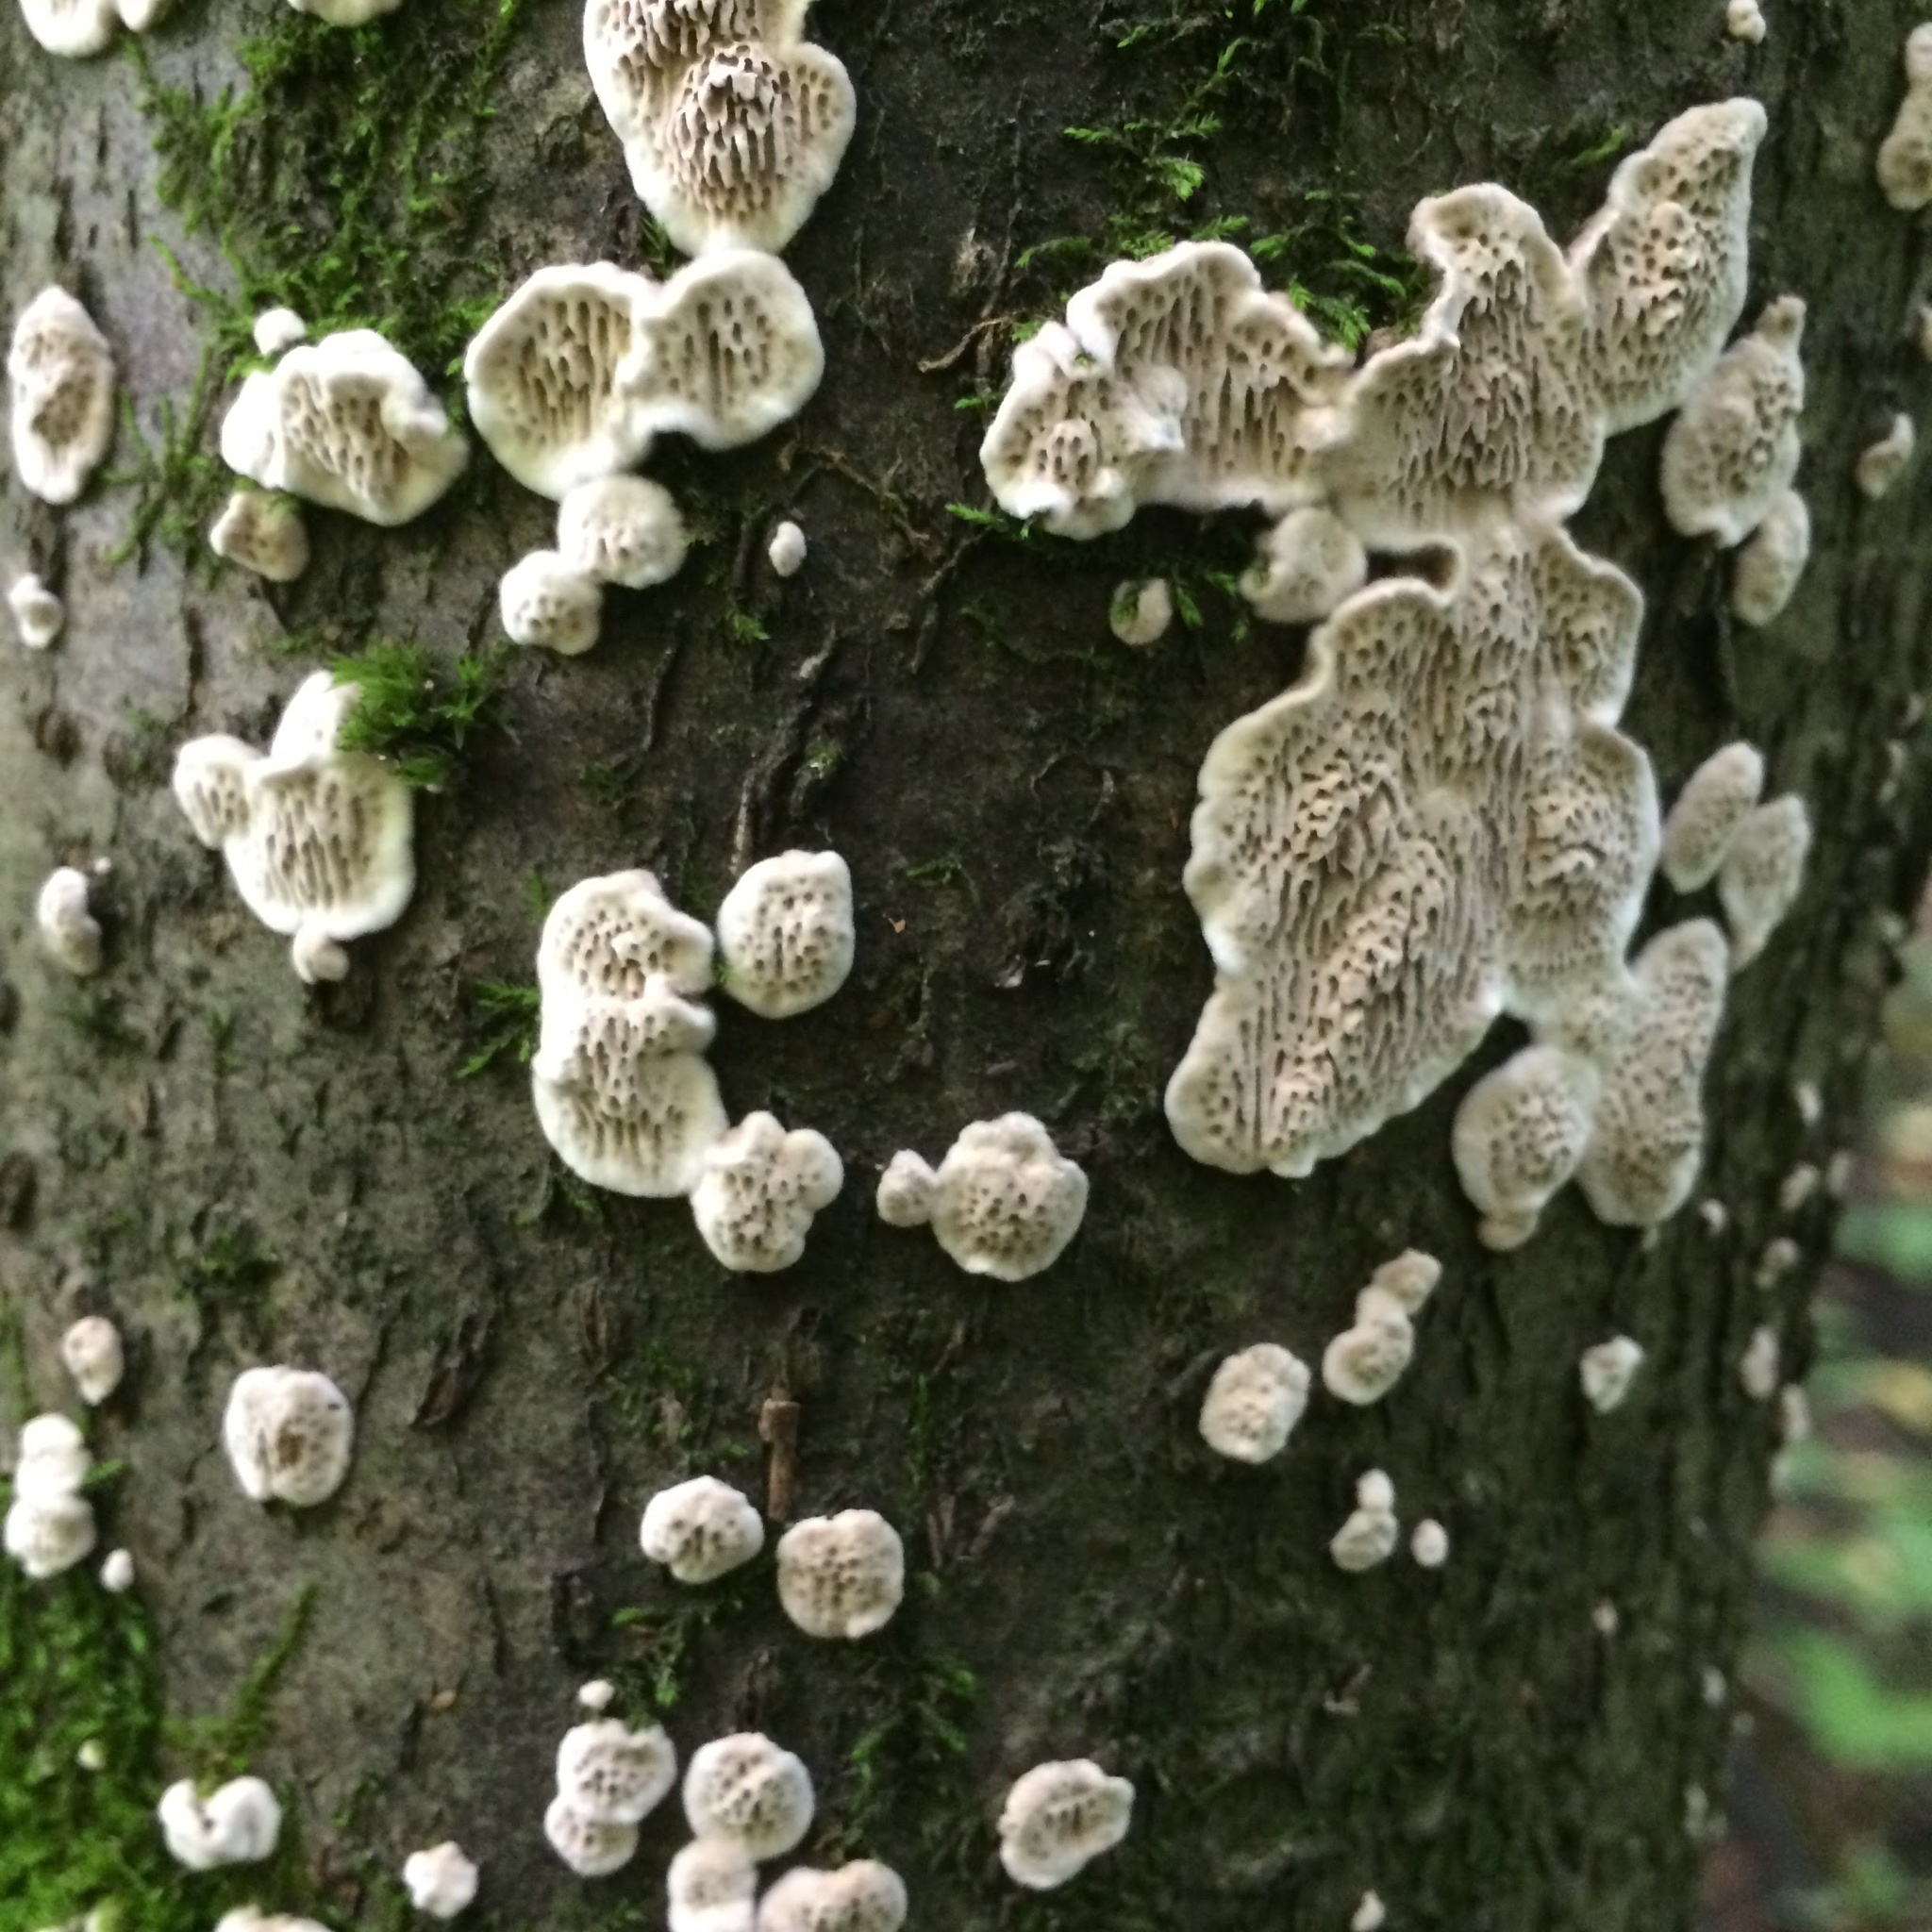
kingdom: Fungi
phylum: Basidiomycota
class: Agaricomycetes
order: Polyporales
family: Irpicaceae
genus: Irpex
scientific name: Irpex lacteus
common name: Milk-white toothed polypore
